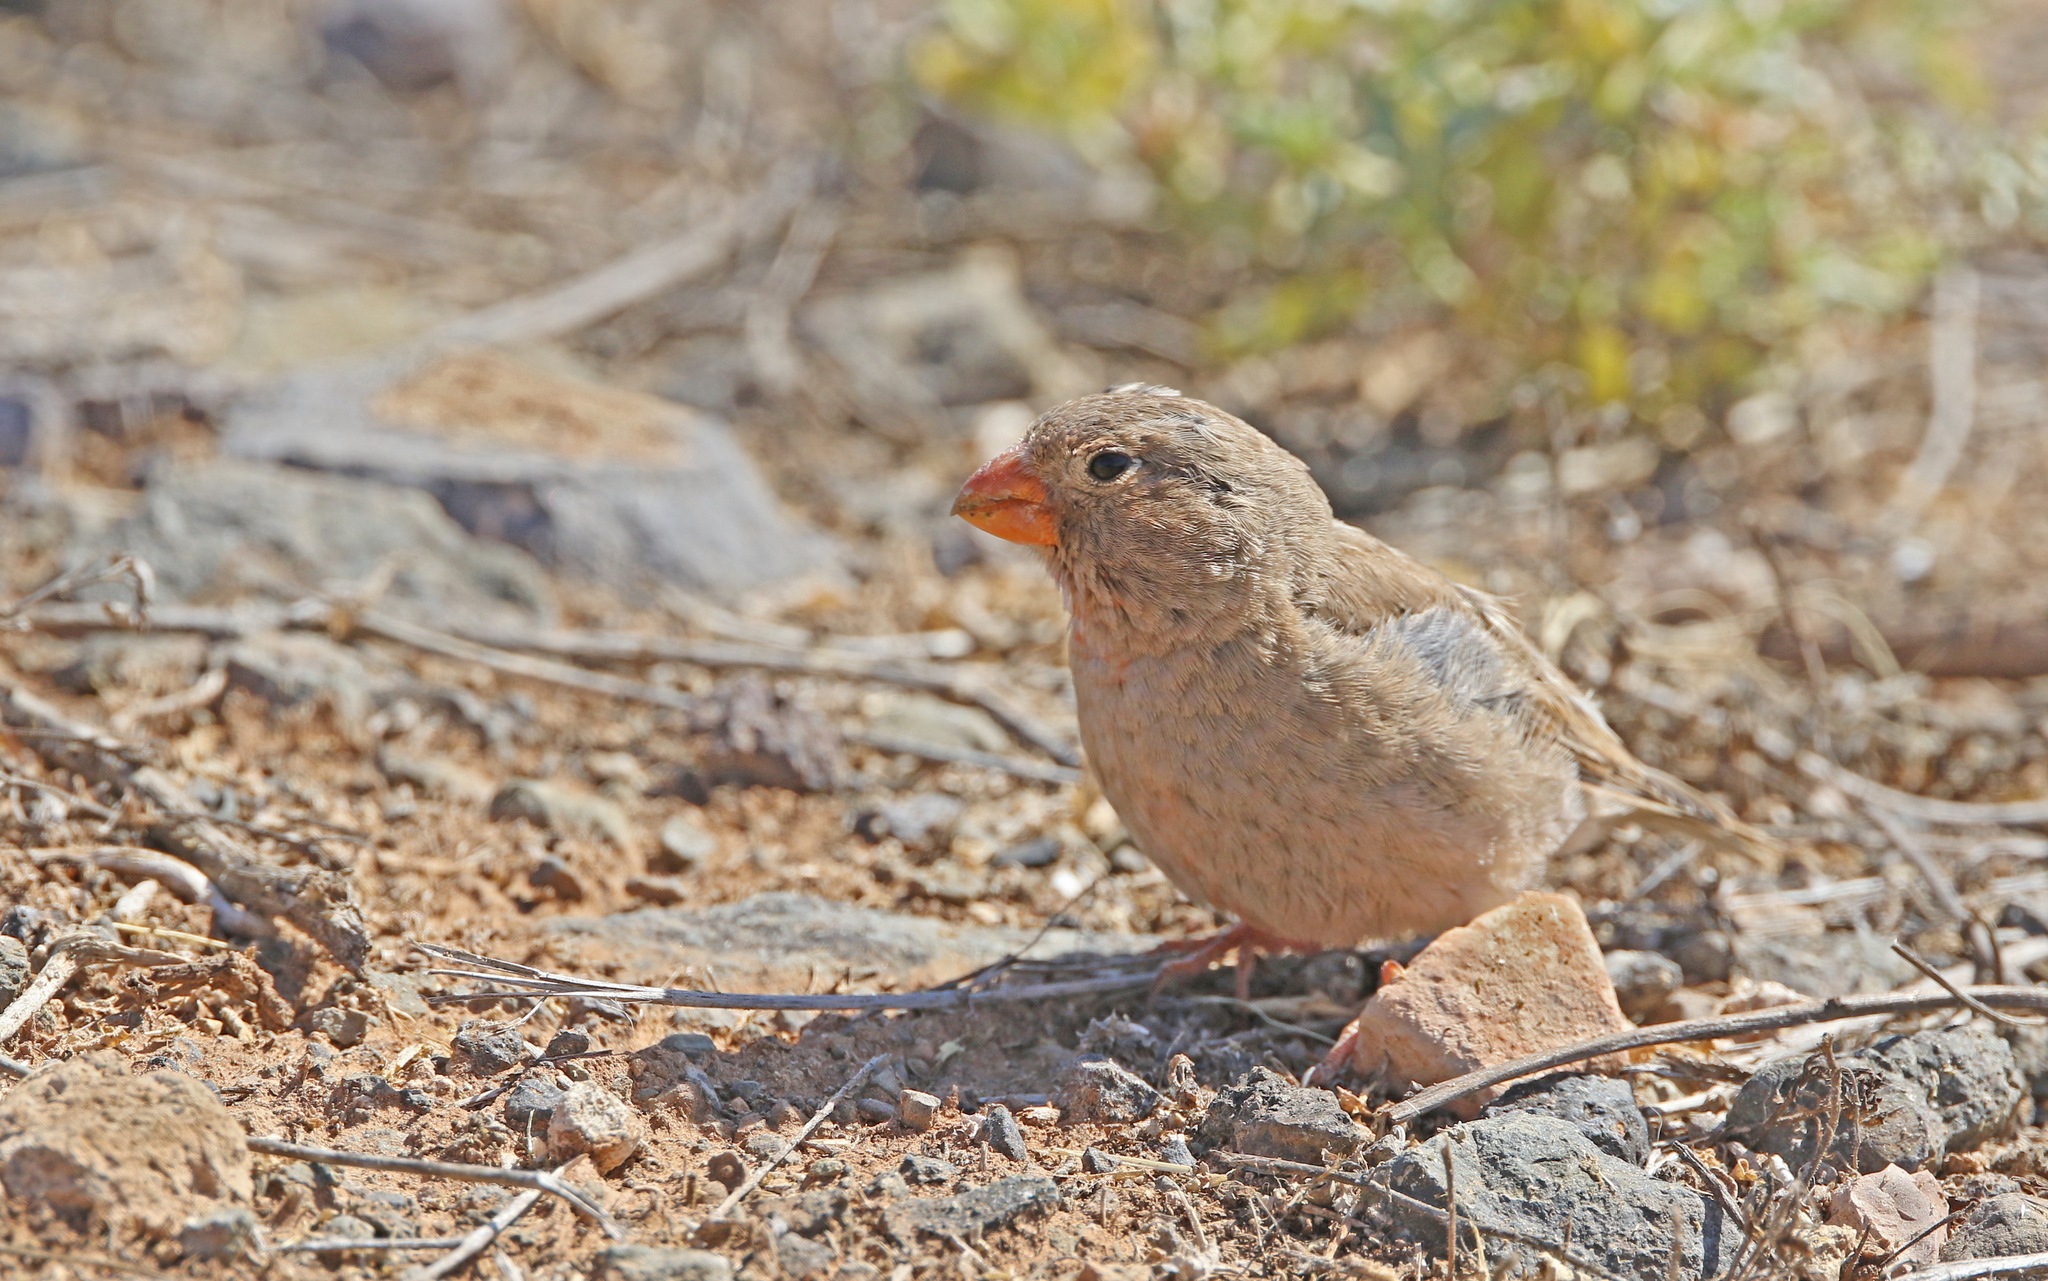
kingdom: Animalia
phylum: Chordata
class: Aves
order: Passeriformes
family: Fringillidae
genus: Bucanetes
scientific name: Bucanetes githagineus
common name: Trumpeter finch
